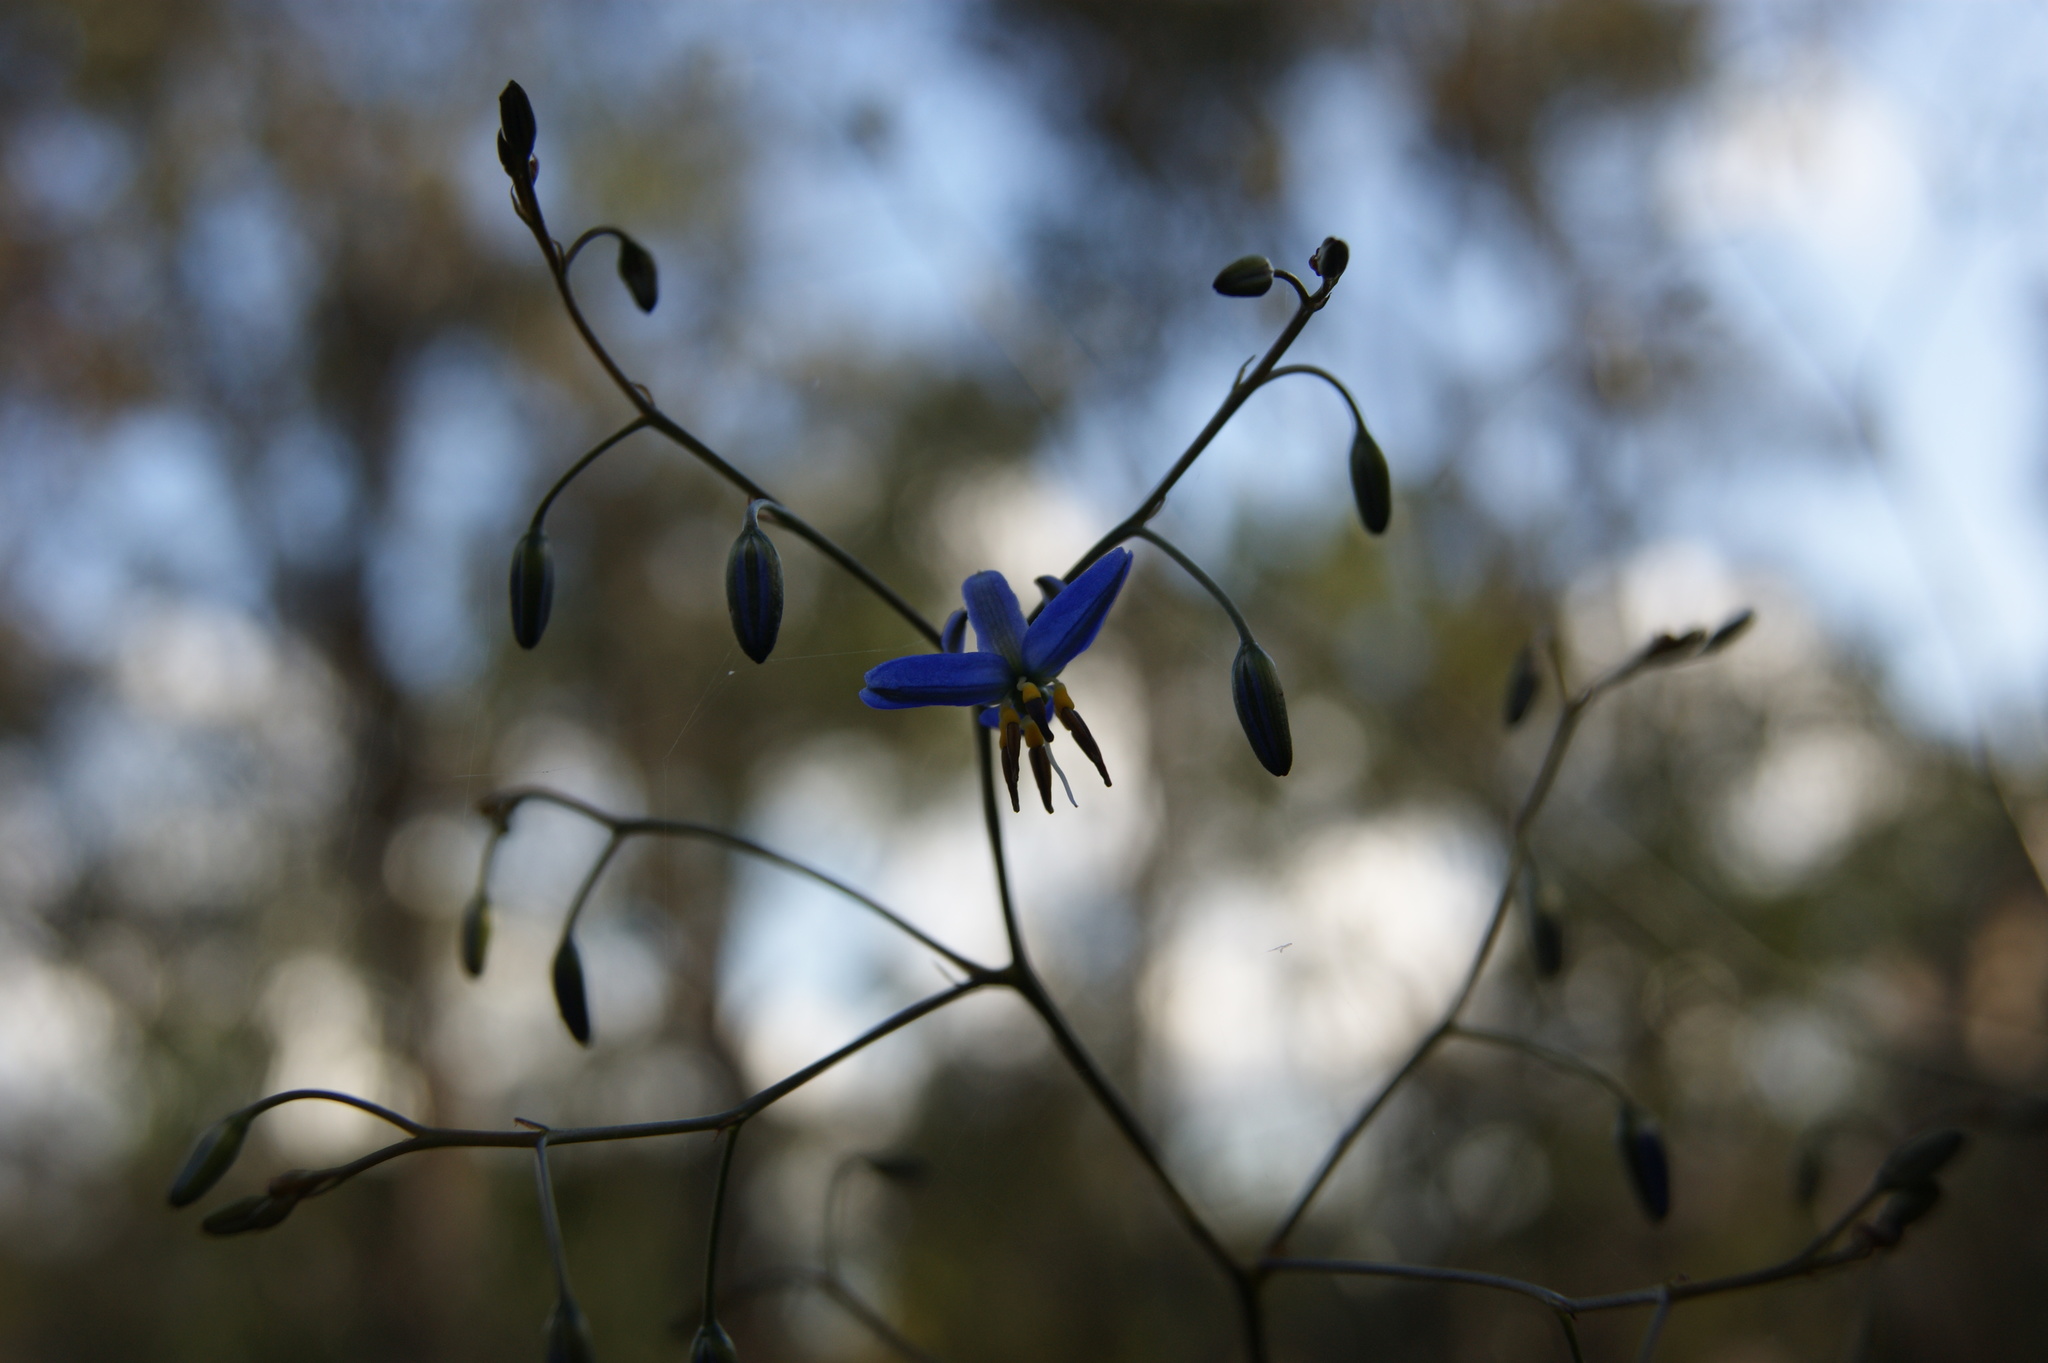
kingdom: Plantae
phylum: Tracheophyta
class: Liliopsida
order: Asparagales
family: Asphodelaceae
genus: Dianella
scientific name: Dianella revoluta
